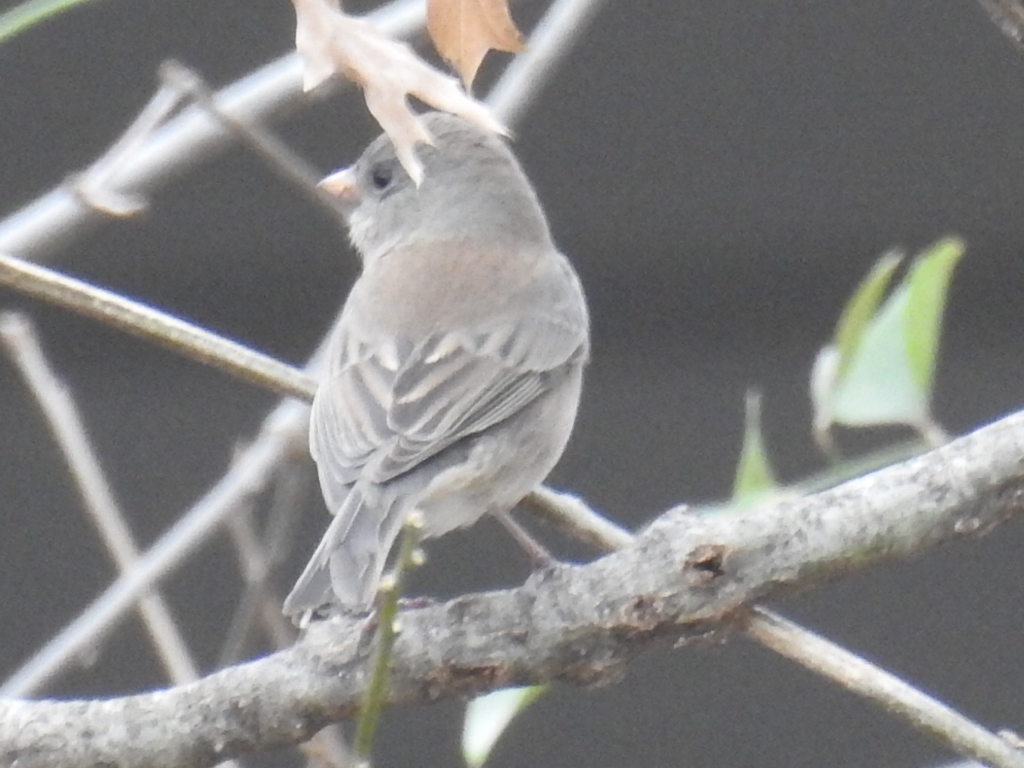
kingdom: Animalia
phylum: Chordata
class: Aves
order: Passeriformes
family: Passerellidae
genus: Junco
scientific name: Junco hyemalis
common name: Dark-eyed junco
